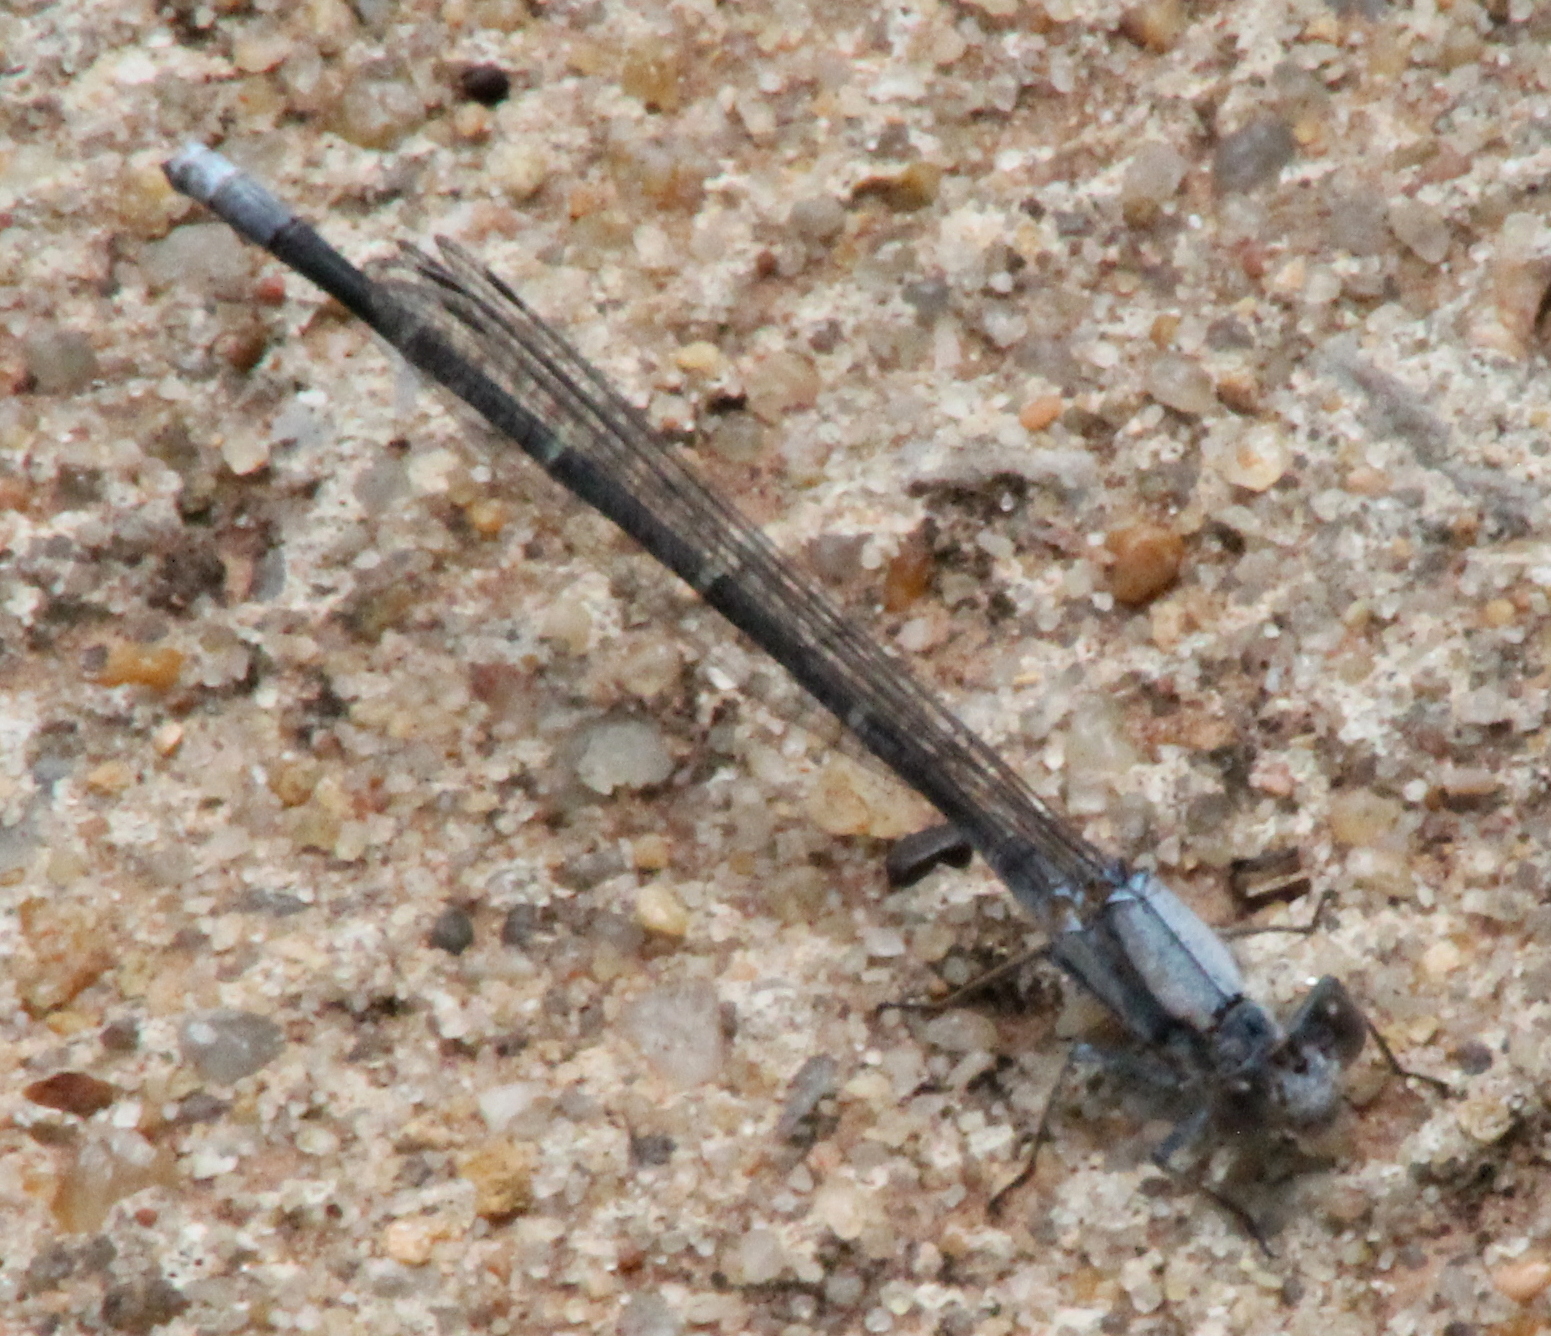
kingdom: Animalia
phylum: Arthropoda
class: Insecta
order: Odonata
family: Coenagrionidae
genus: Argia
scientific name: Argia moesta
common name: Powdered dancer
